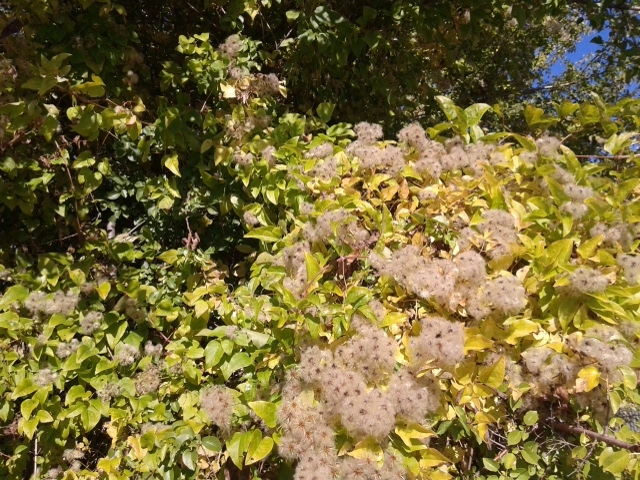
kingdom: Plantae
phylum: Tracheophyta
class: Magnoliopsida
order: Ranunculales
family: Ranunculaceae
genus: Clematis
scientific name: Clematis vitalba
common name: Evergreen clematis
